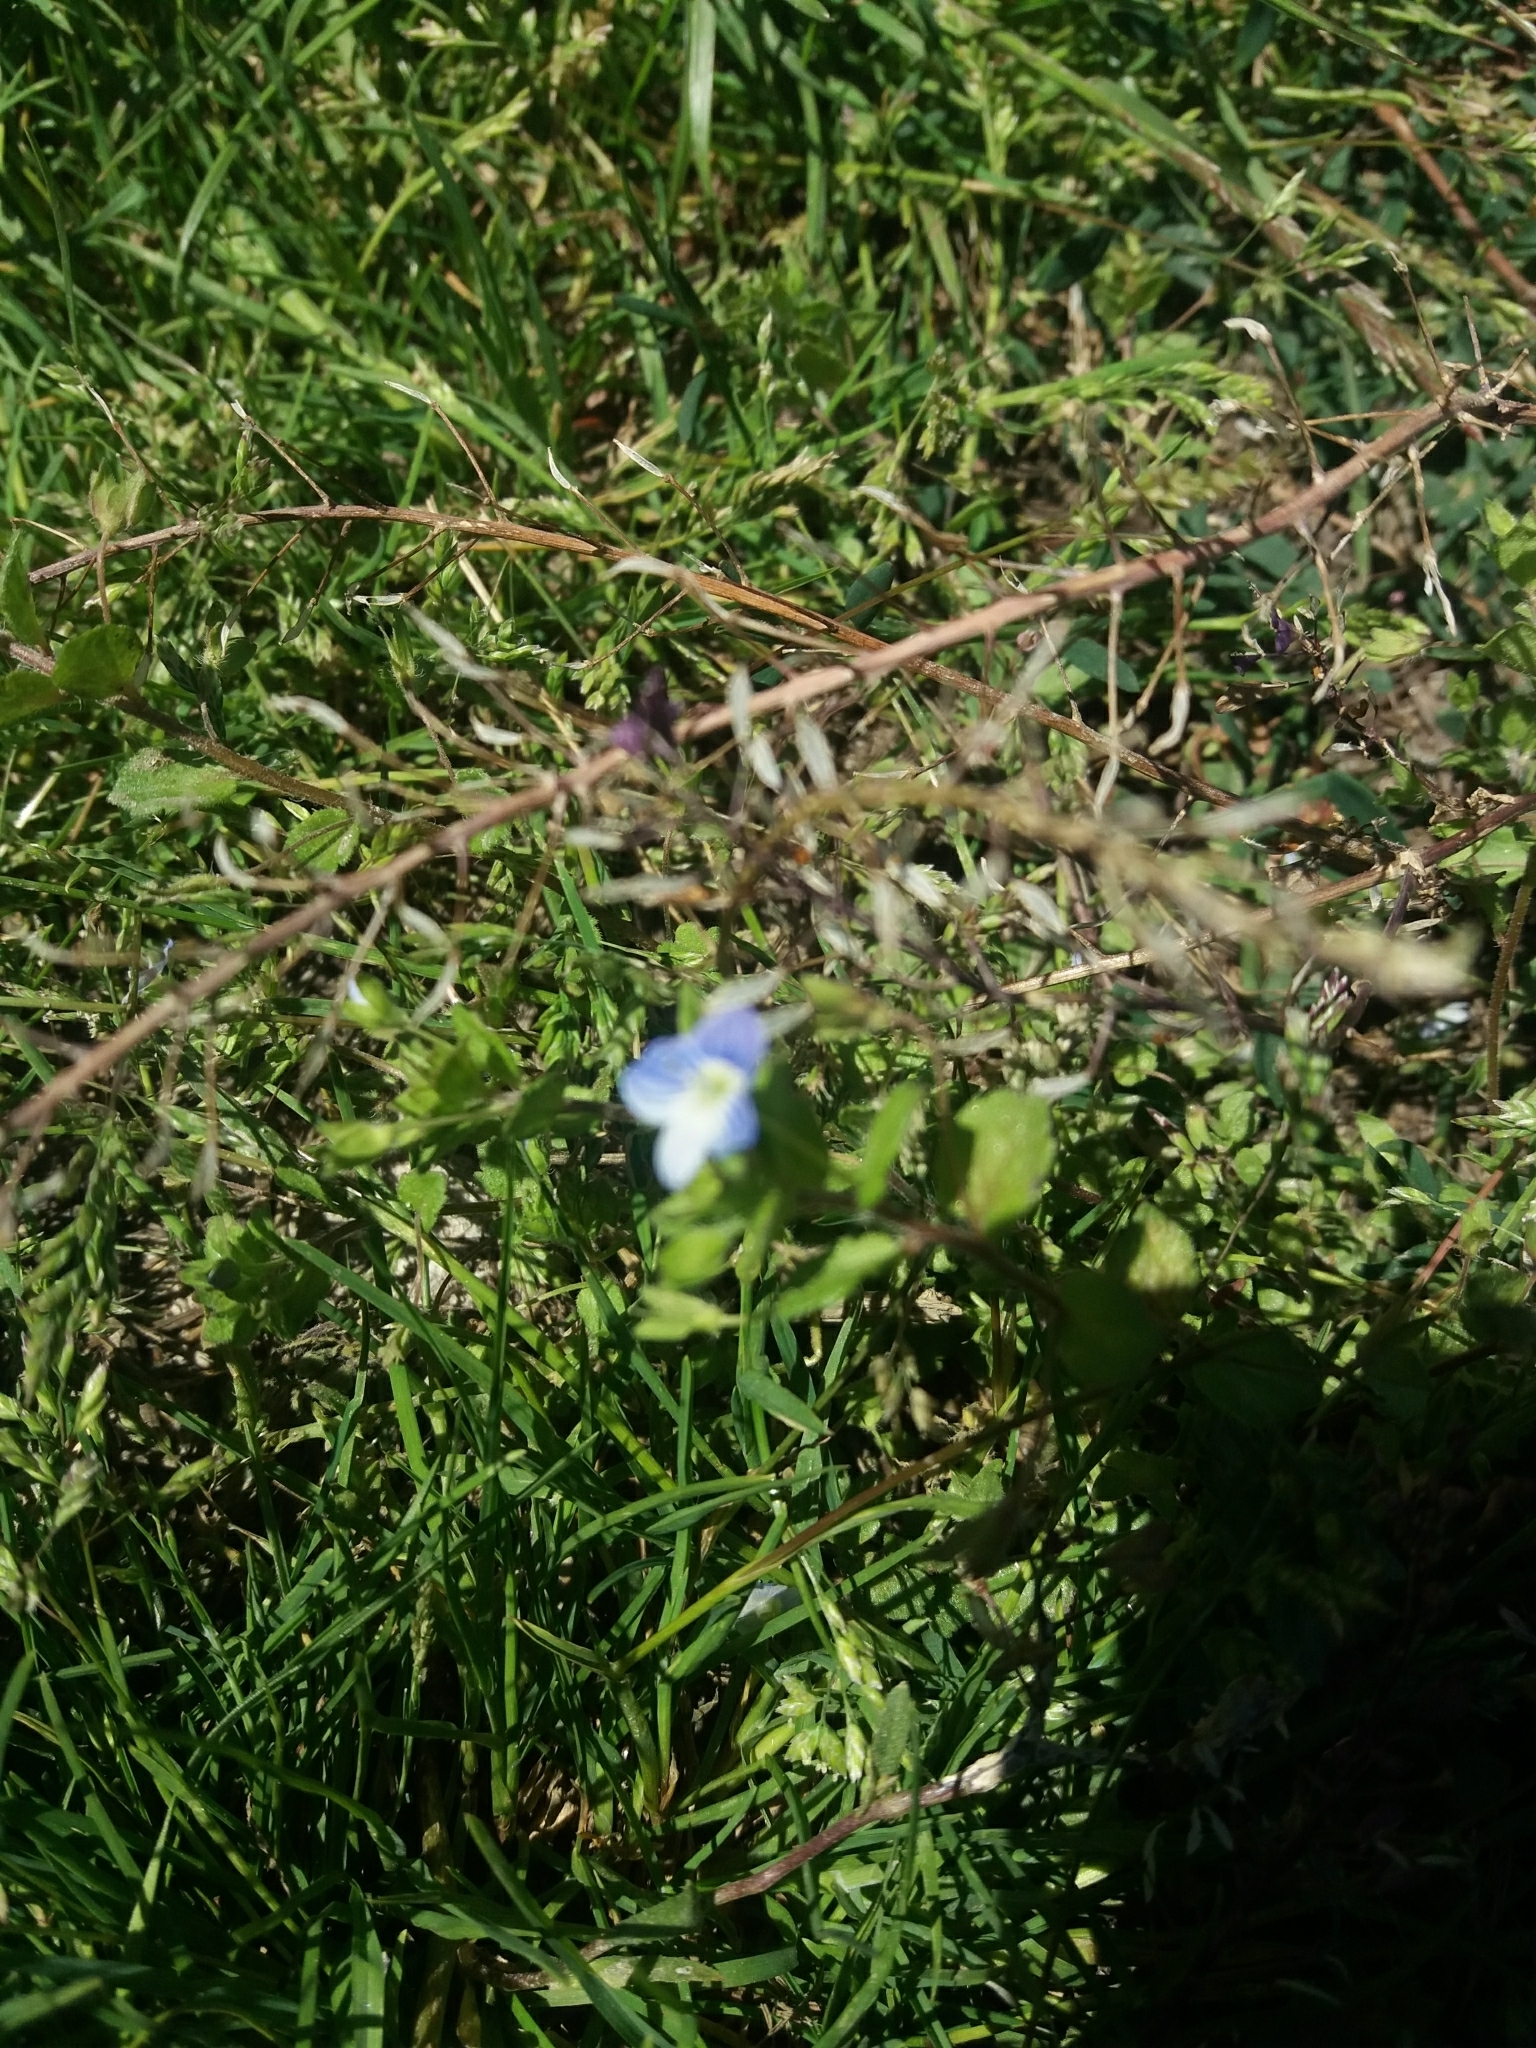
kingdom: Plantae
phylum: Tracheophyta
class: Magnoliopsida
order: Lamiales
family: Plantaginaceae
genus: Veronica
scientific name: Veronica persica
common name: Common field-speedwell
